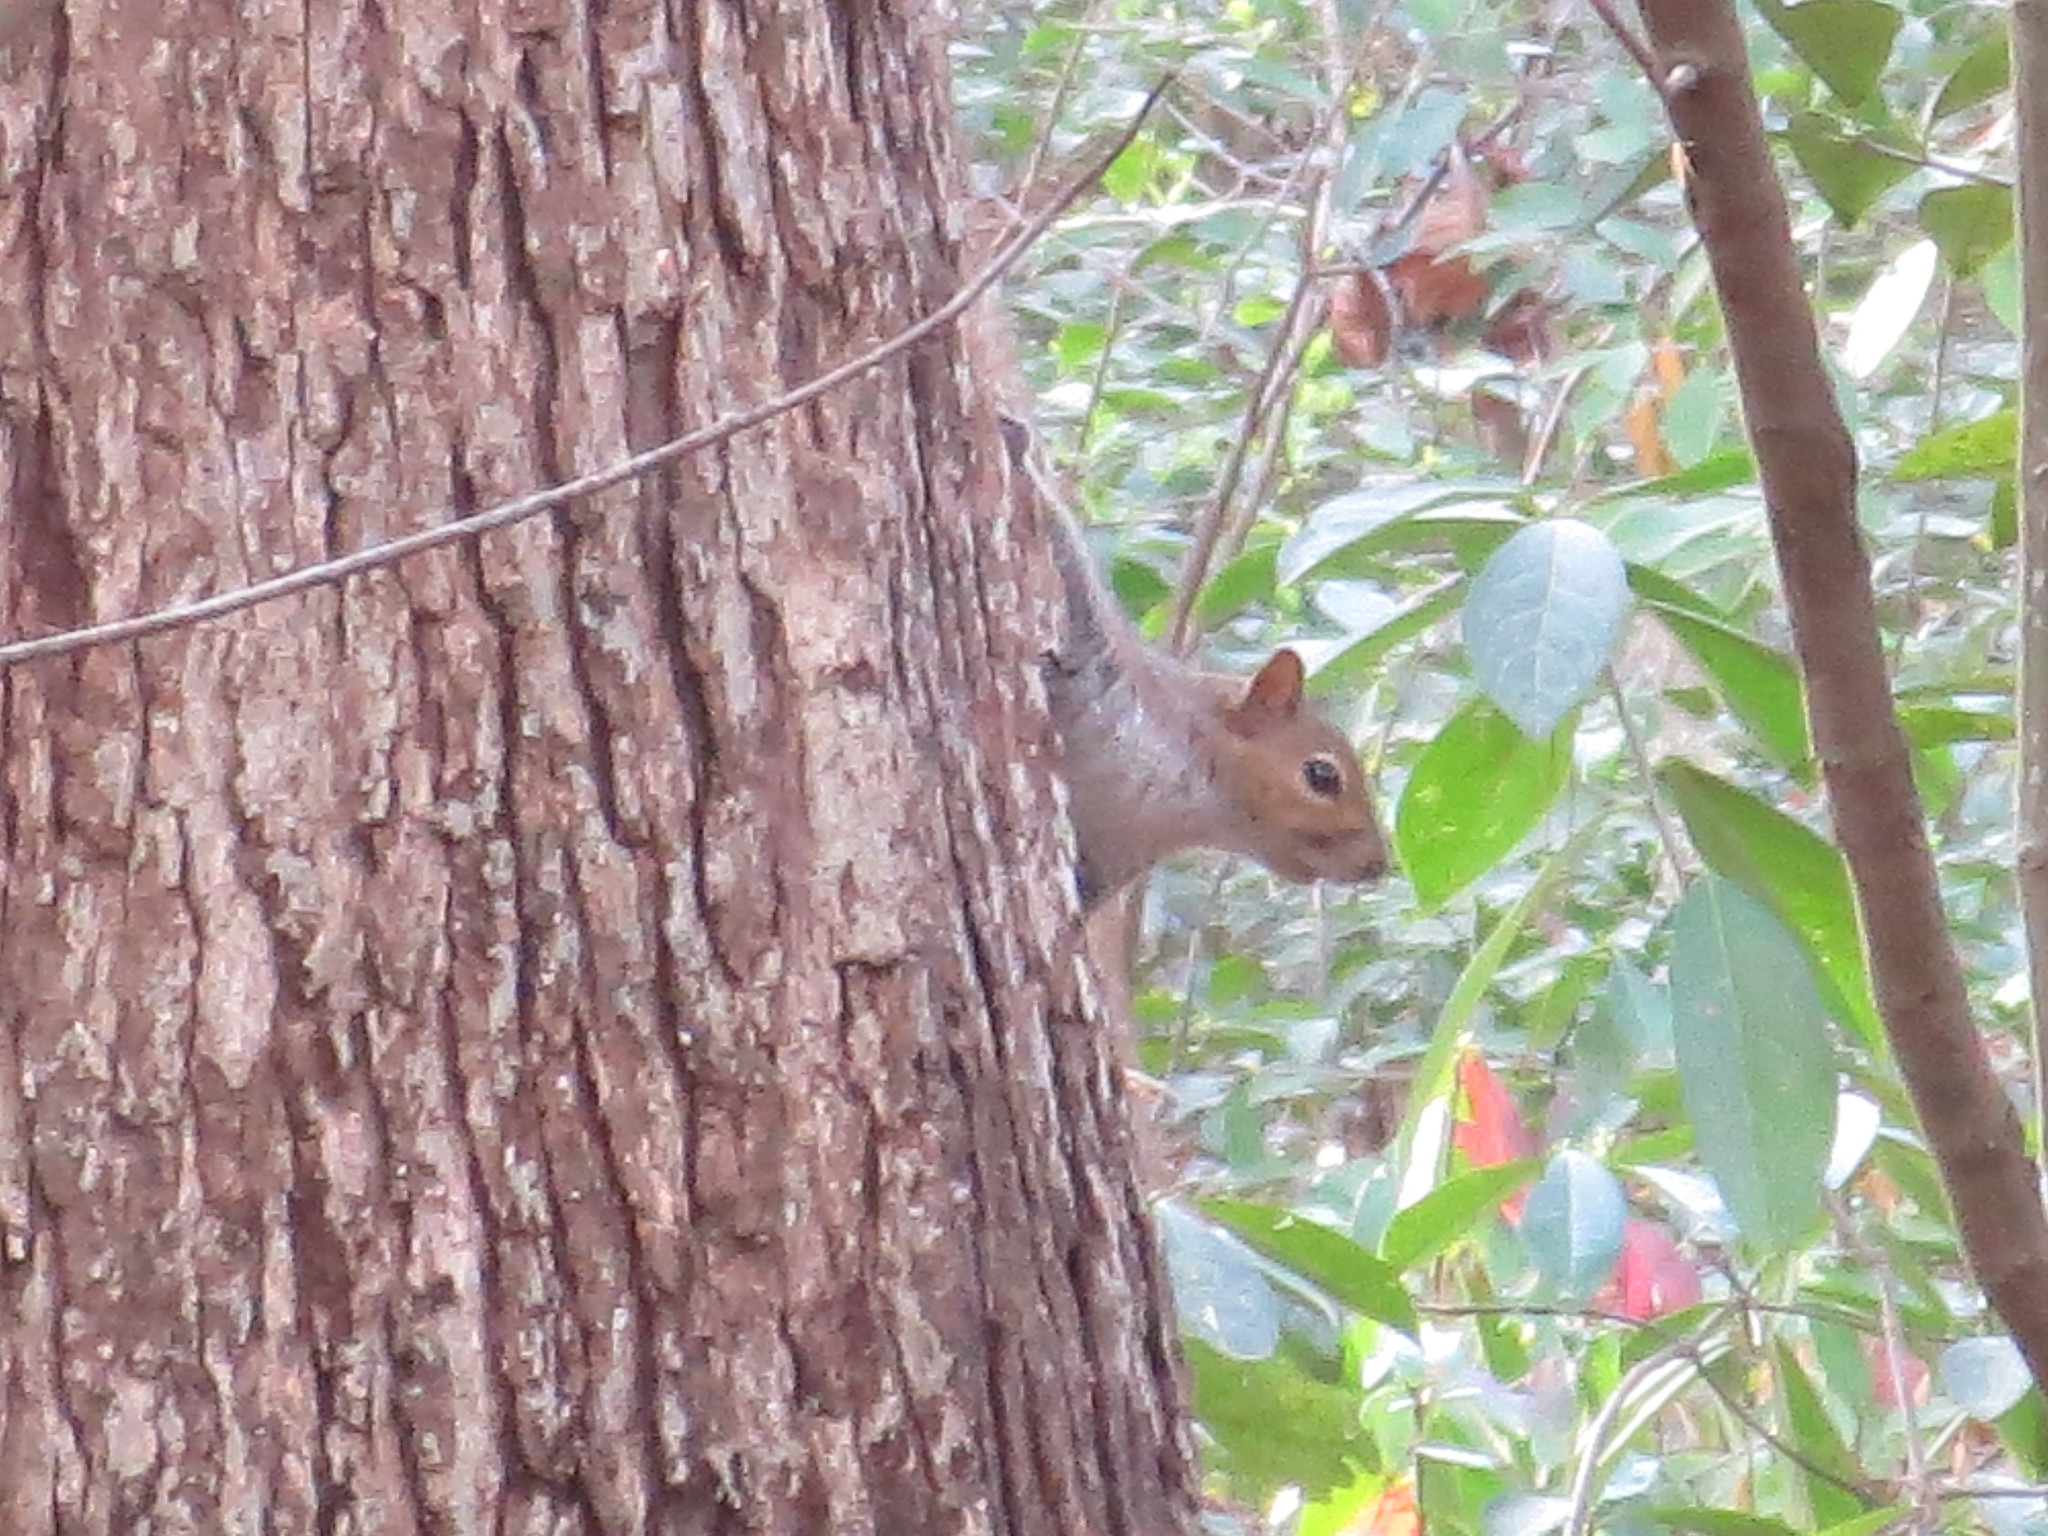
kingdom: Animalia
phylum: Chordata
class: Mammalia
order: Rodentia
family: Sciuridae
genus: Sciurus
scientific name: Sciurus carolinensis
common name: Eastern gray squirrel
